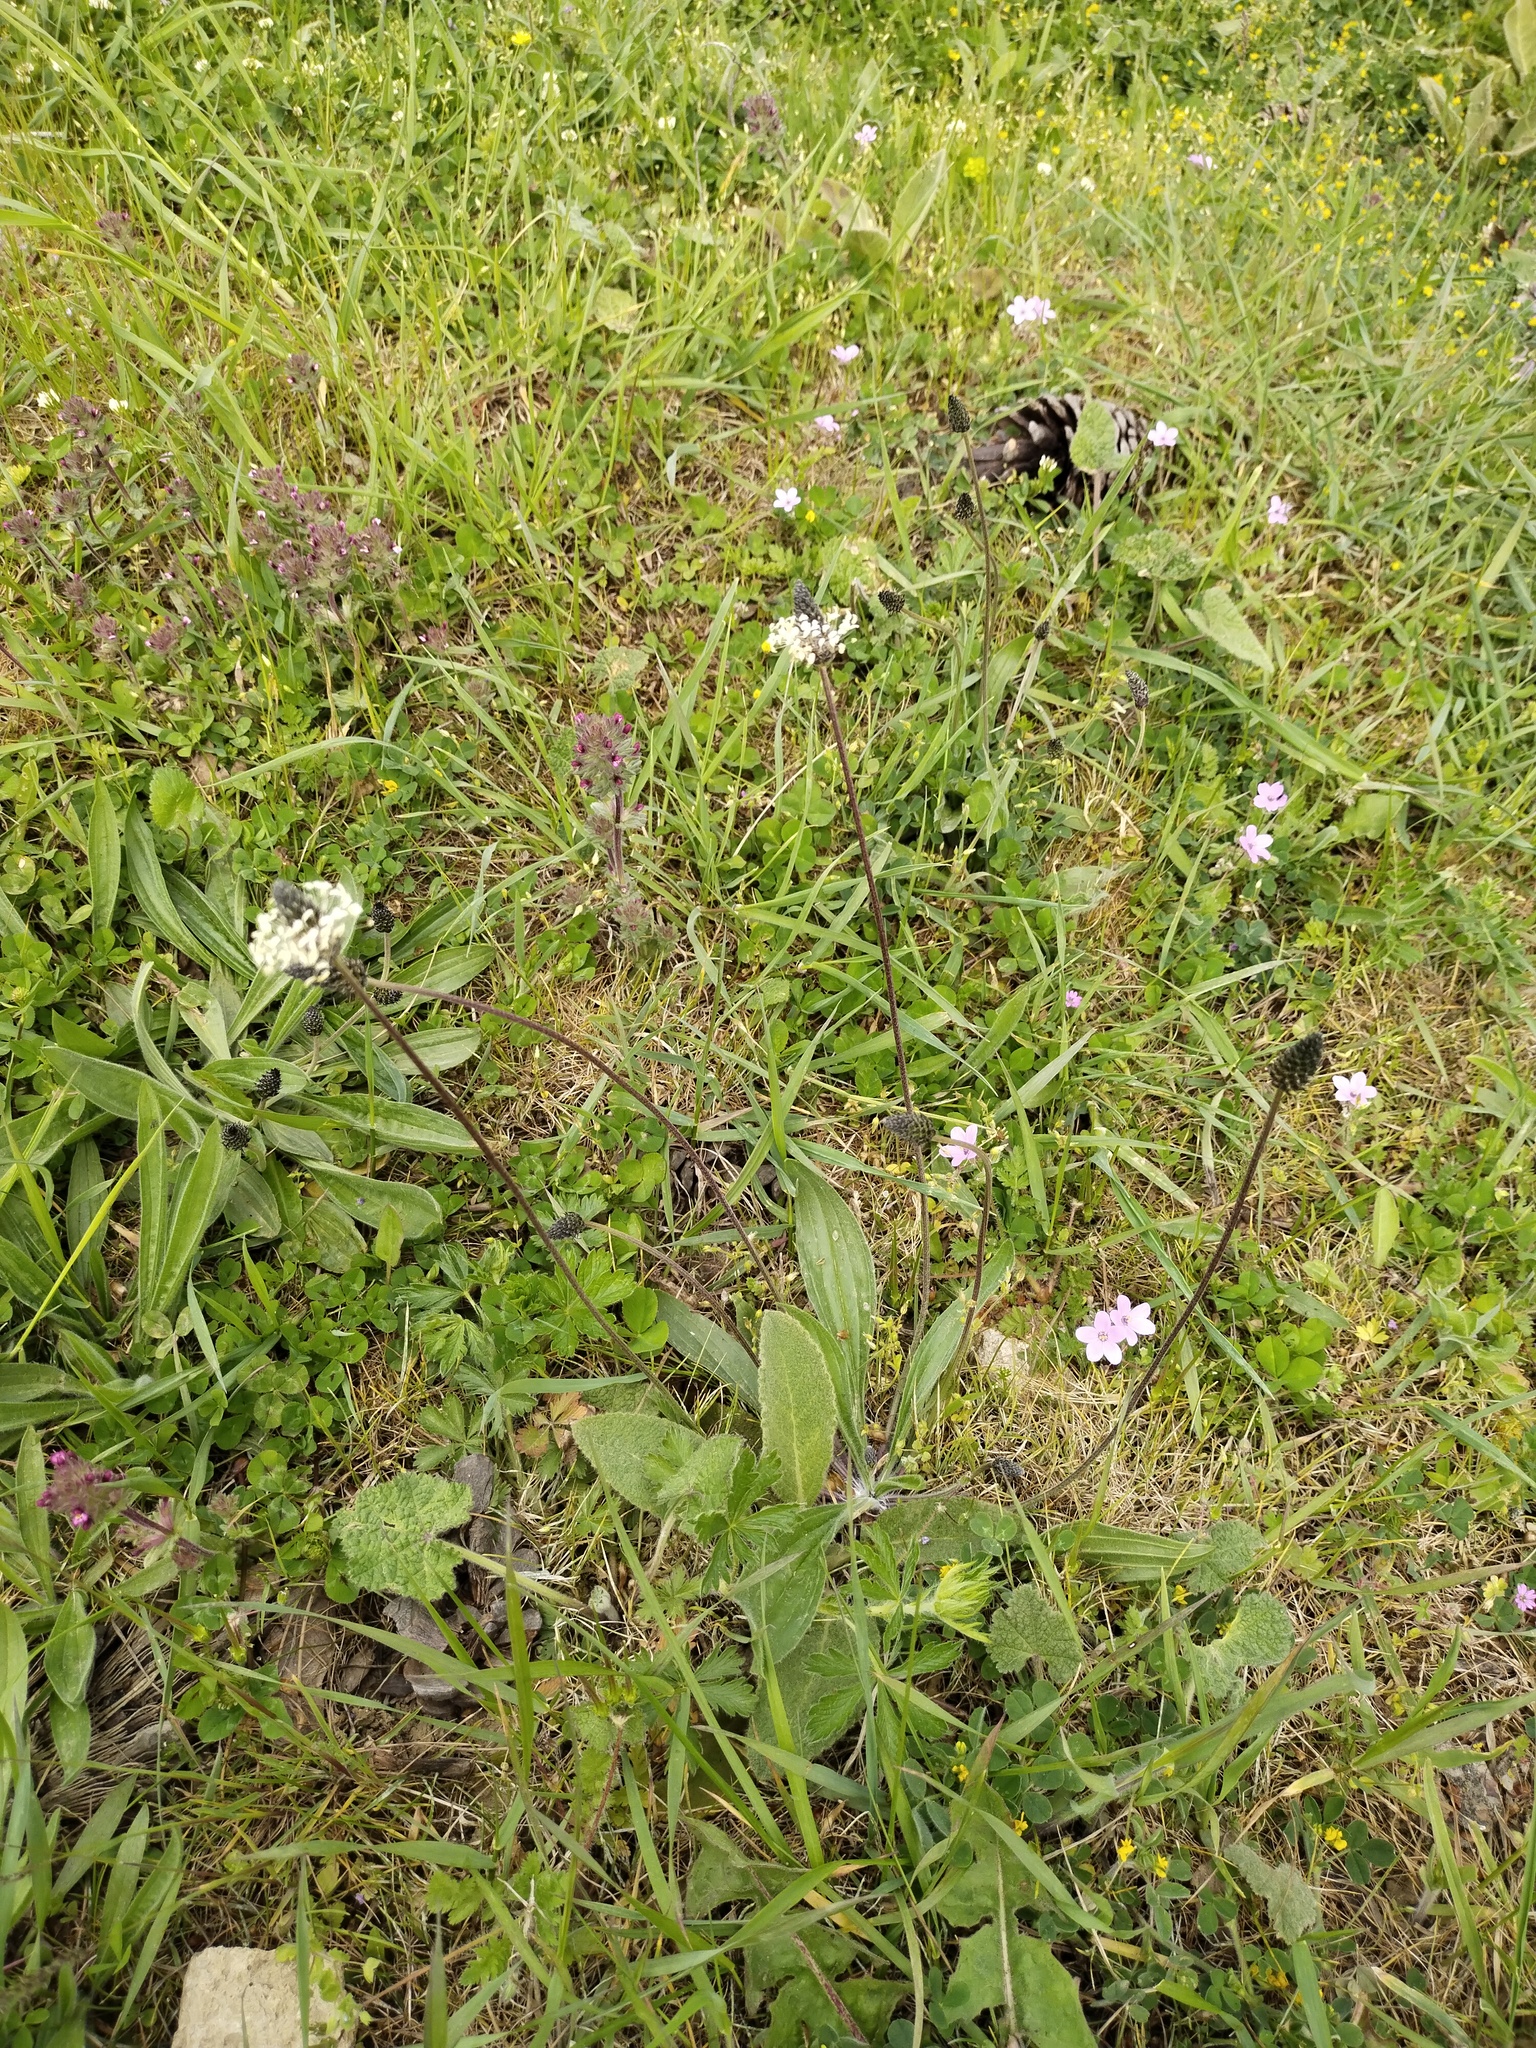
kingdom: Plantae
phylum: Tracheophyta
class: Magnoliopsida
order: Lamiales
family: Plantaginaceae
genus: Plantago
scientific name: Plantago media
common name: Hoary plantain
